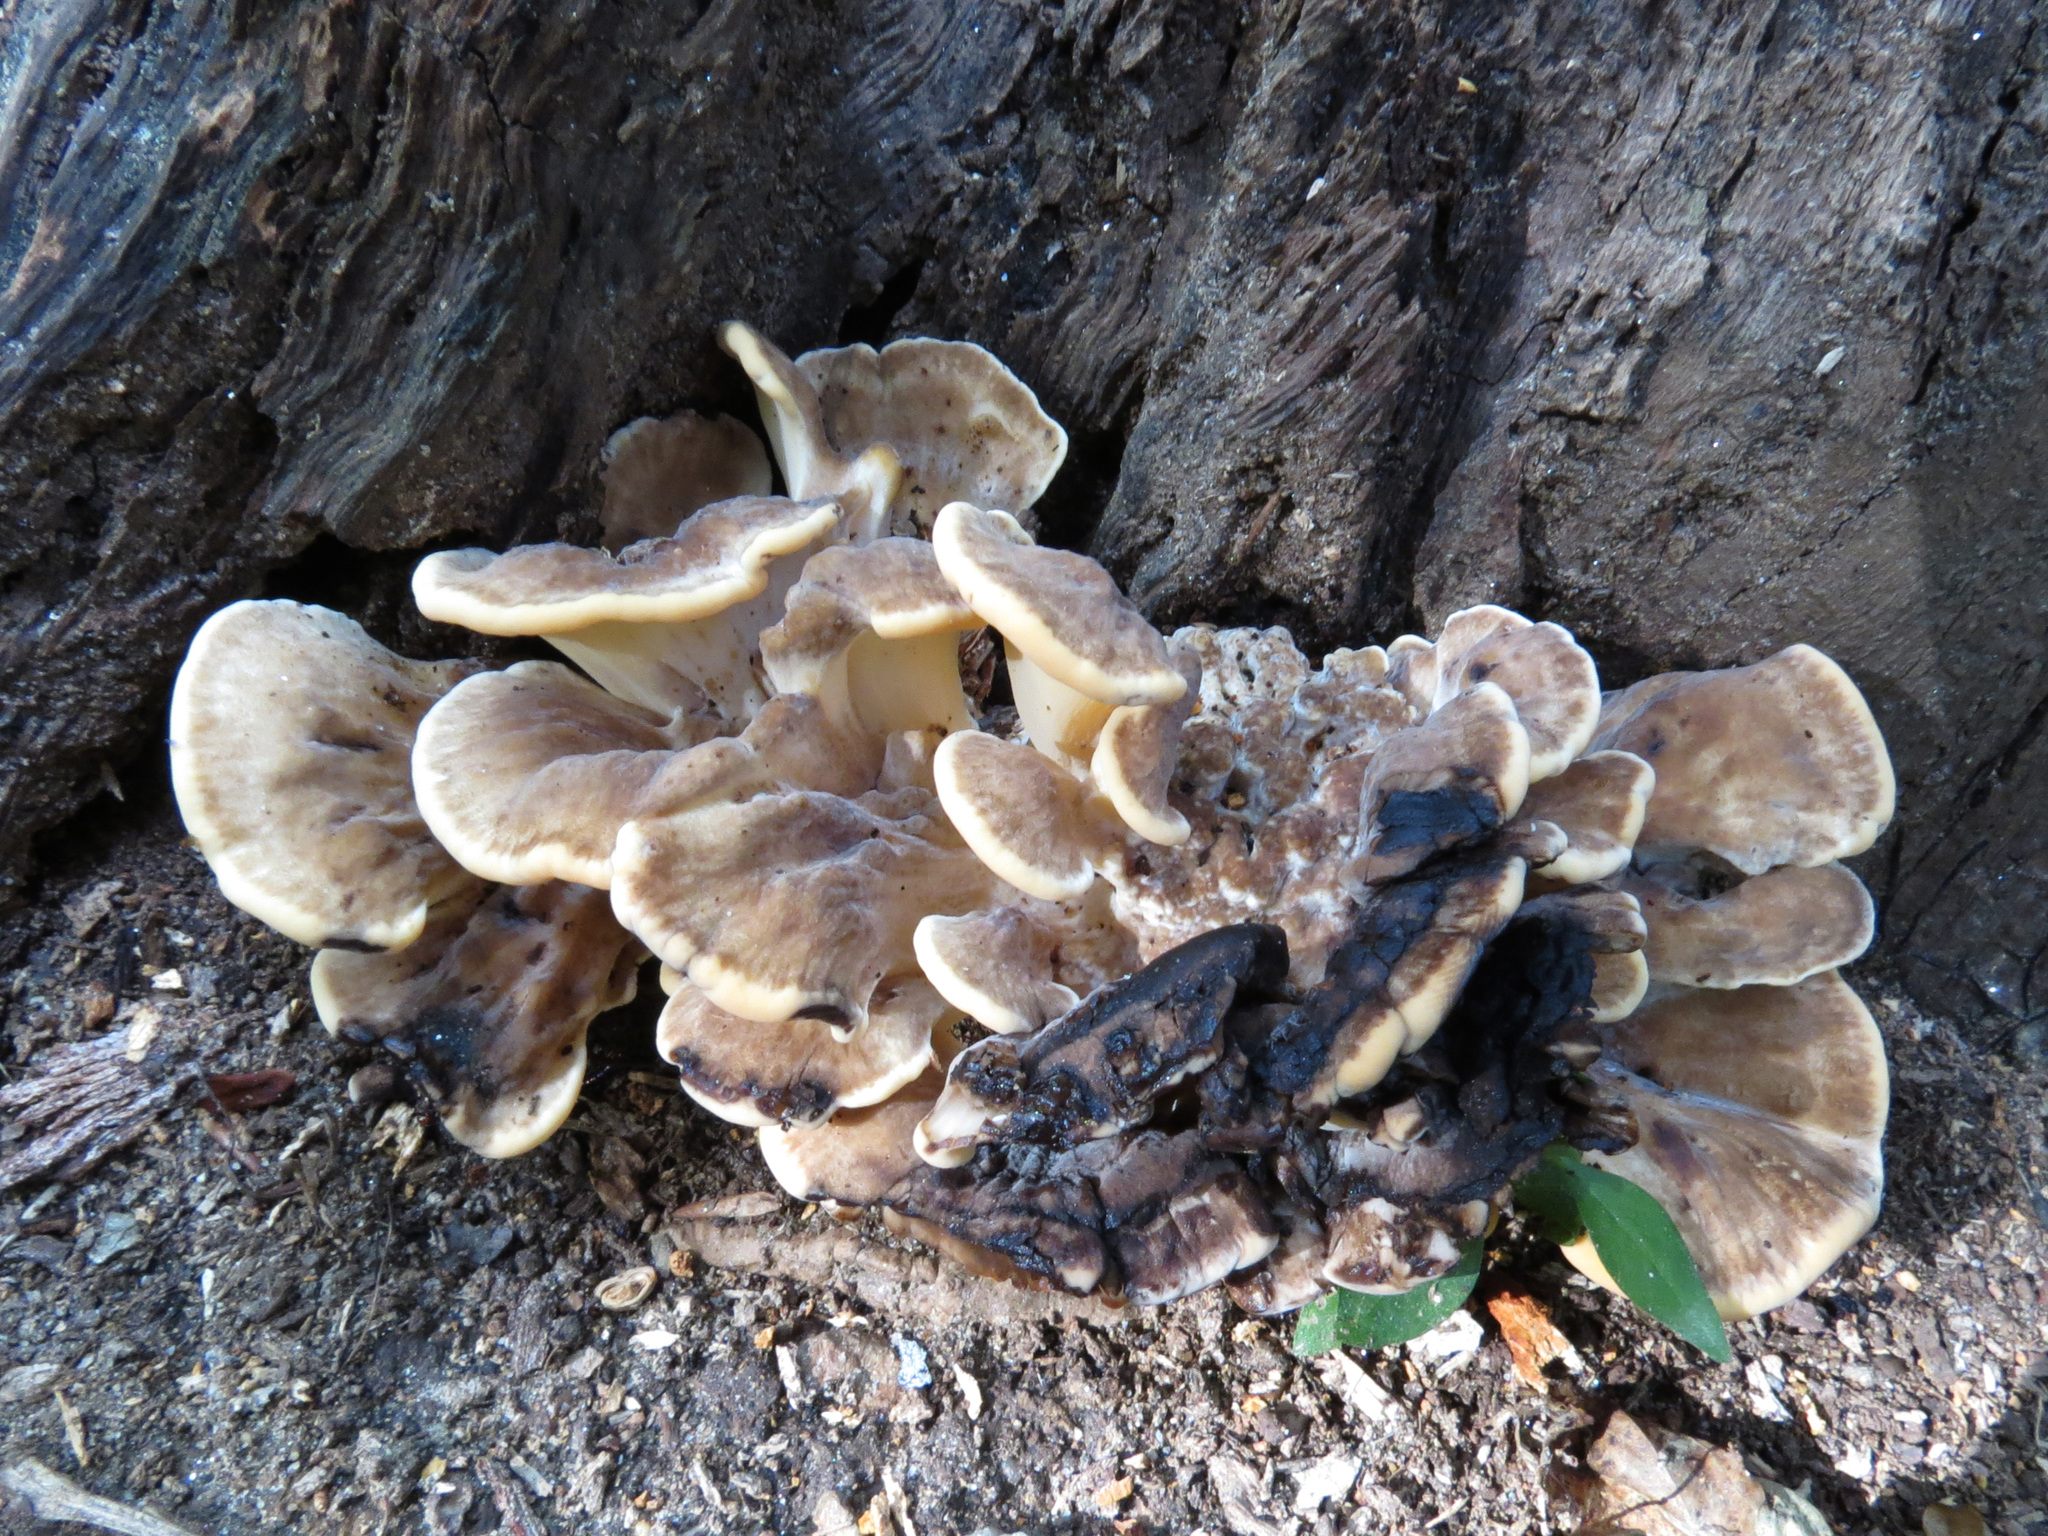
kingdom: Fungi
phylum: Basidiomycota
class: Agaricomycetes
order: Polyporales
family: Meripilaceae
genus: Meripilus
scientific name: Meripilus sumstinei
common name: Black-staining polypore
